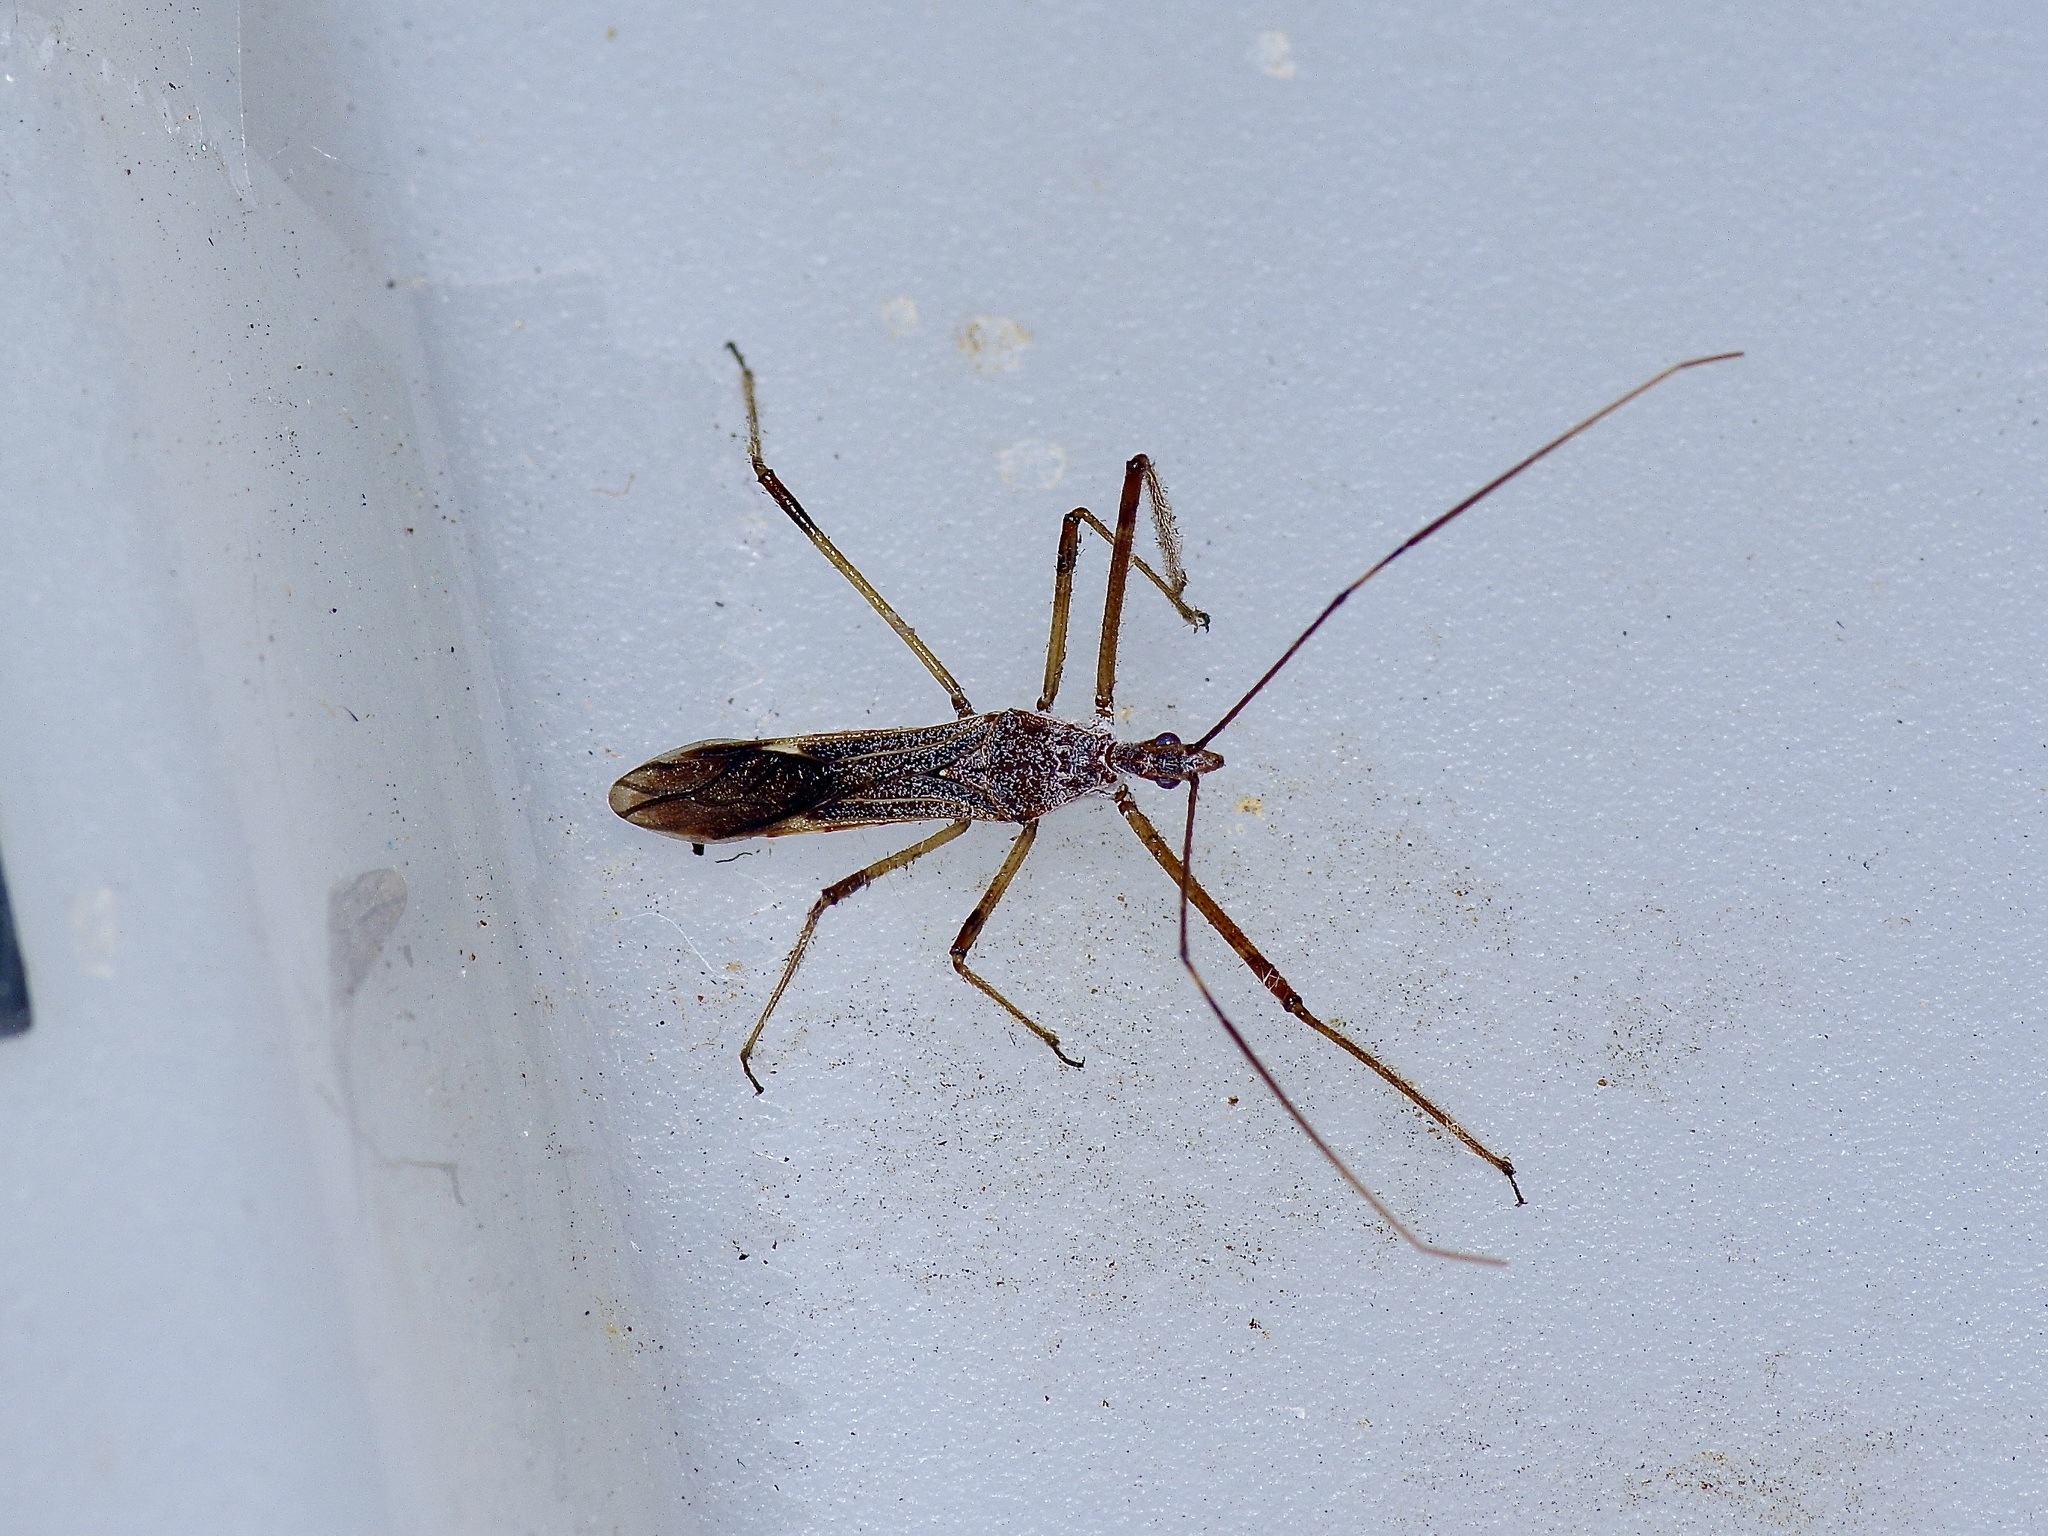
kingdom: Animalia
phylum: Arthropoda
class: Insecta
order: Hemiptera
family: Reduviidae
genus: Zelus
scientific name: Zelus tetracanthus
